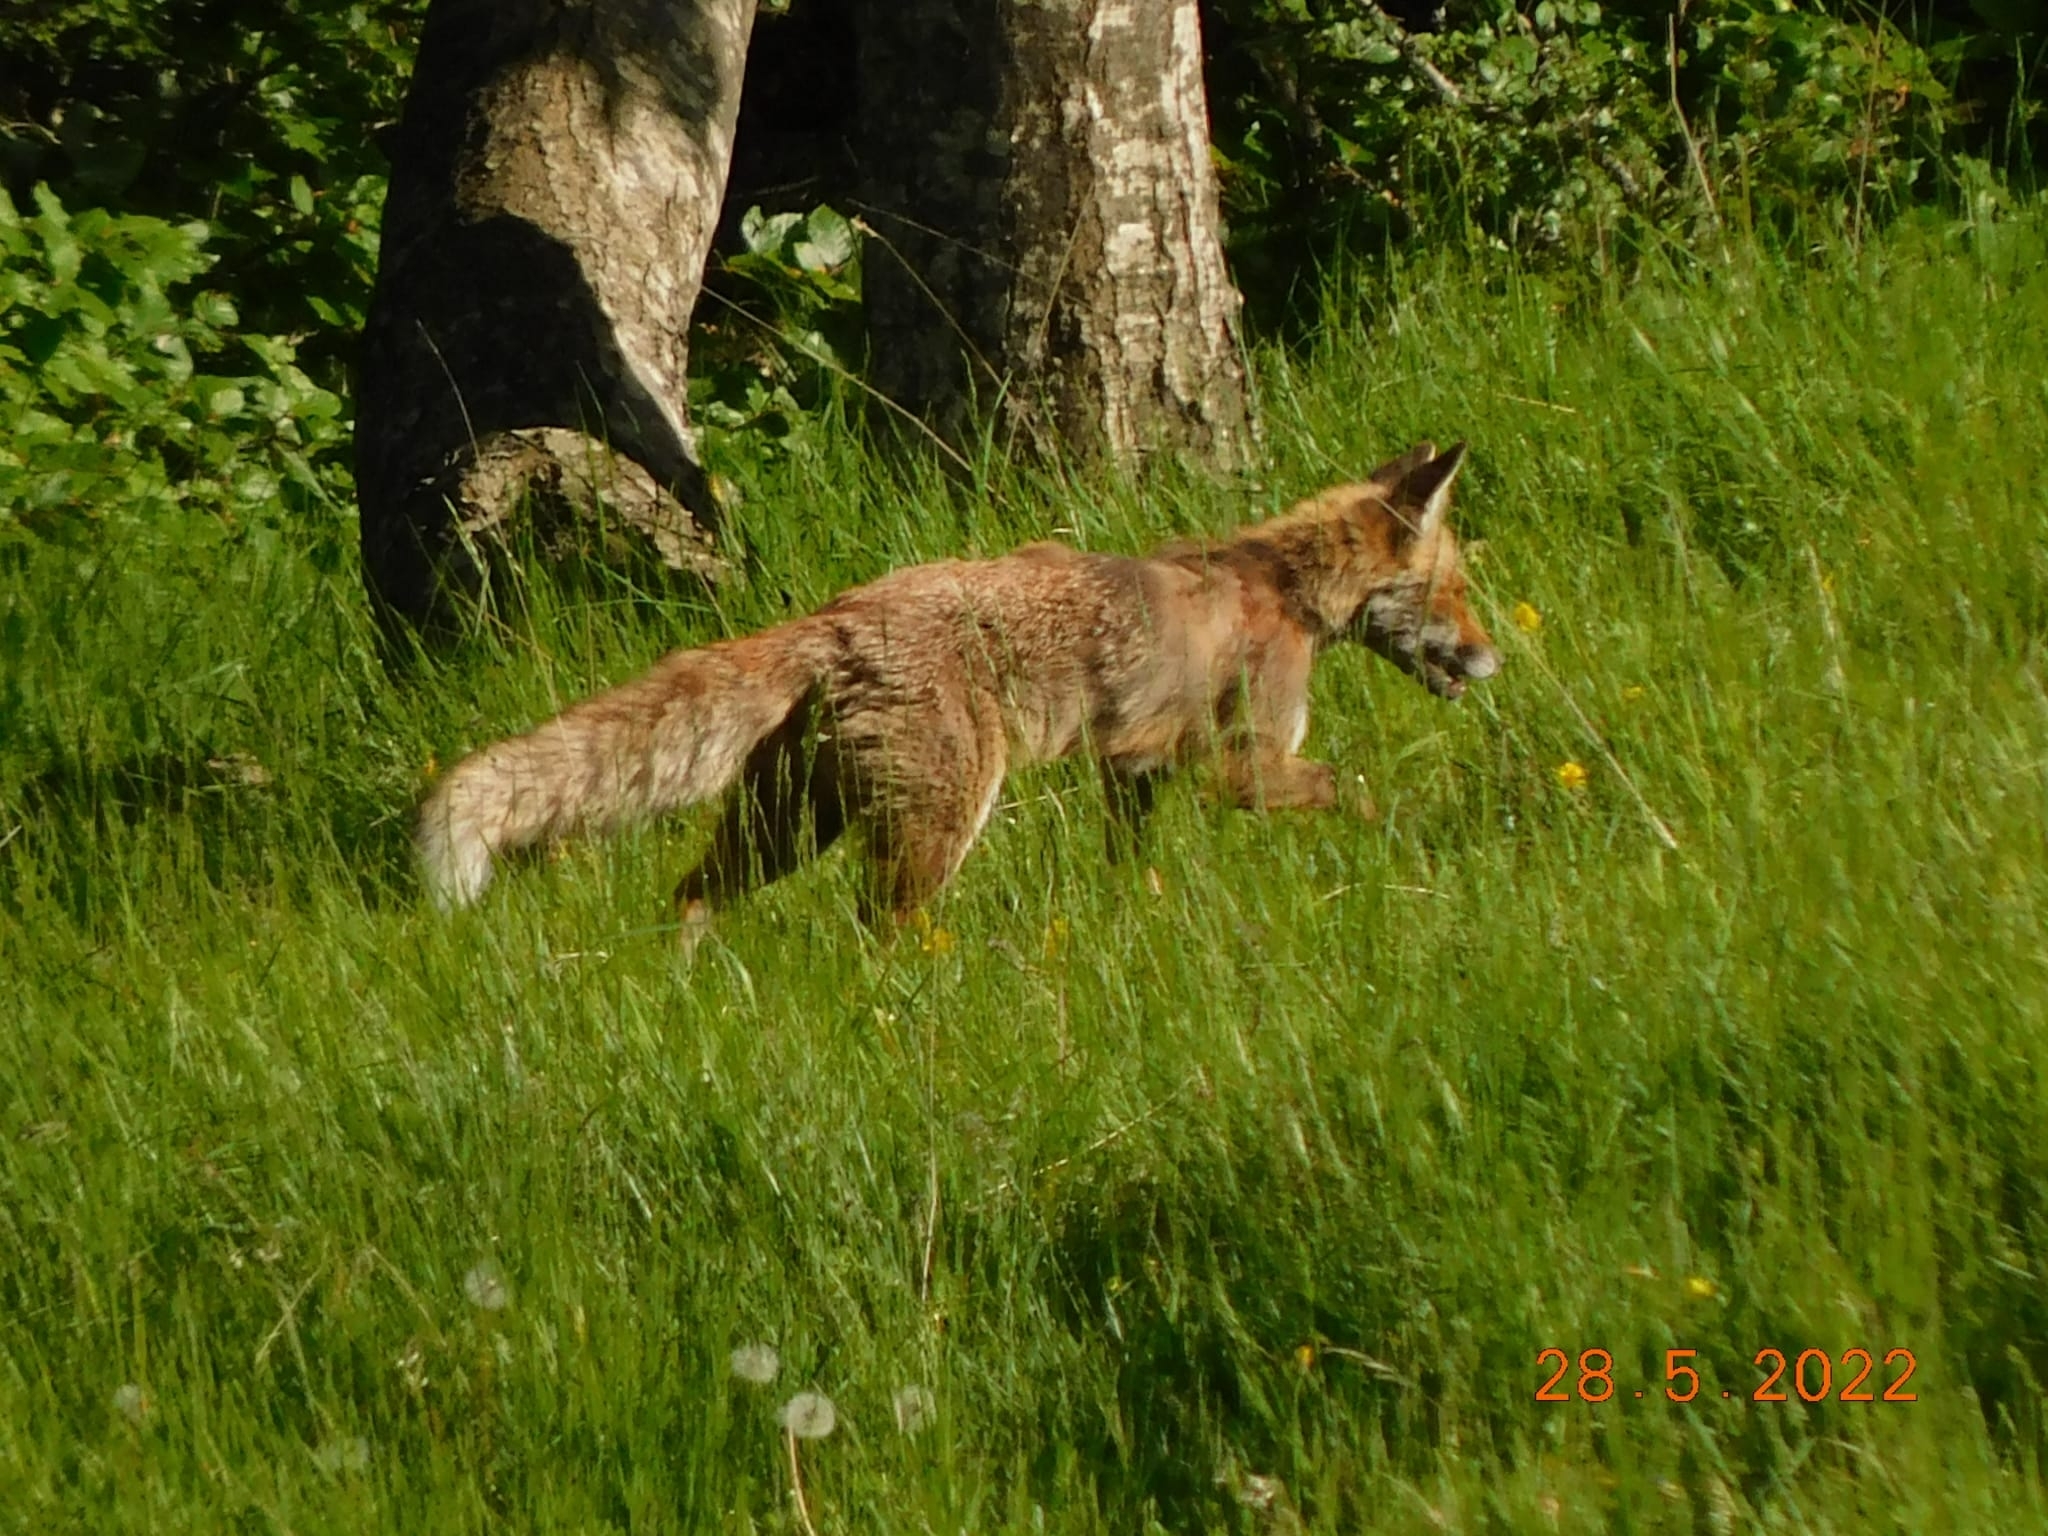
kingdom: Animalia
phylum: Chordata
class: Mammalia
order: Carnivora
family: Canidae
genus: Vulpes
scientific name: Vulpes vulpes
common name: Red fox
